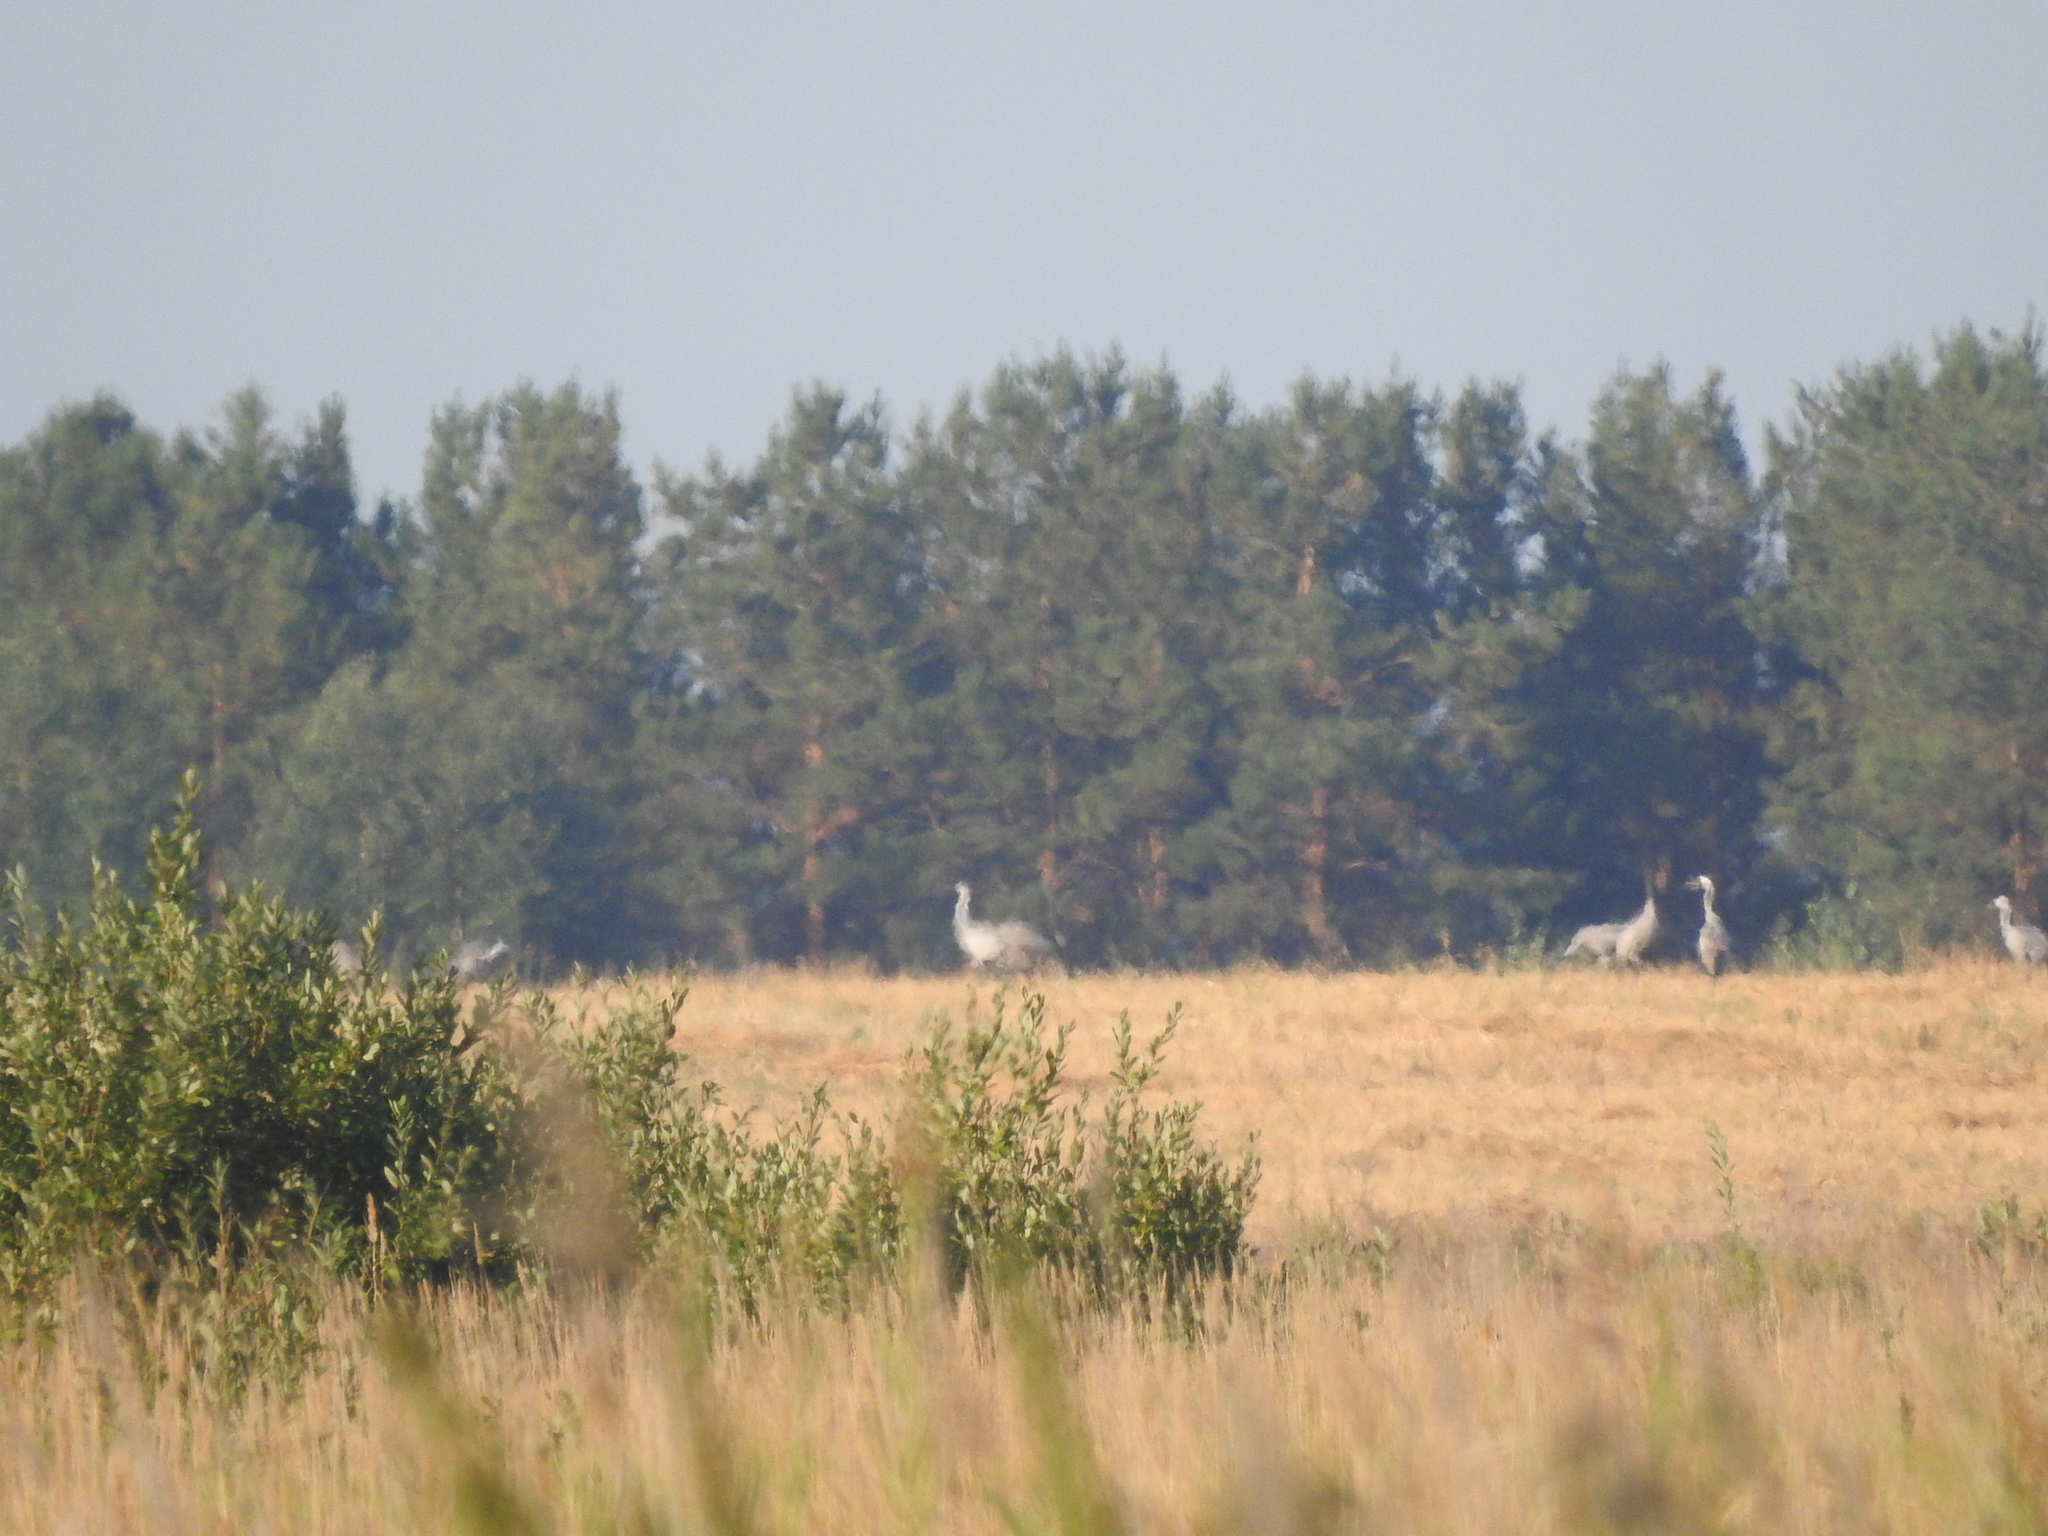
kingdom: Animalia
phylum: Chordata
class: Aves
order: Gruiformes
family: Gruidae
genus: Grus
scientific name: Grus grus
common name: Common crane
